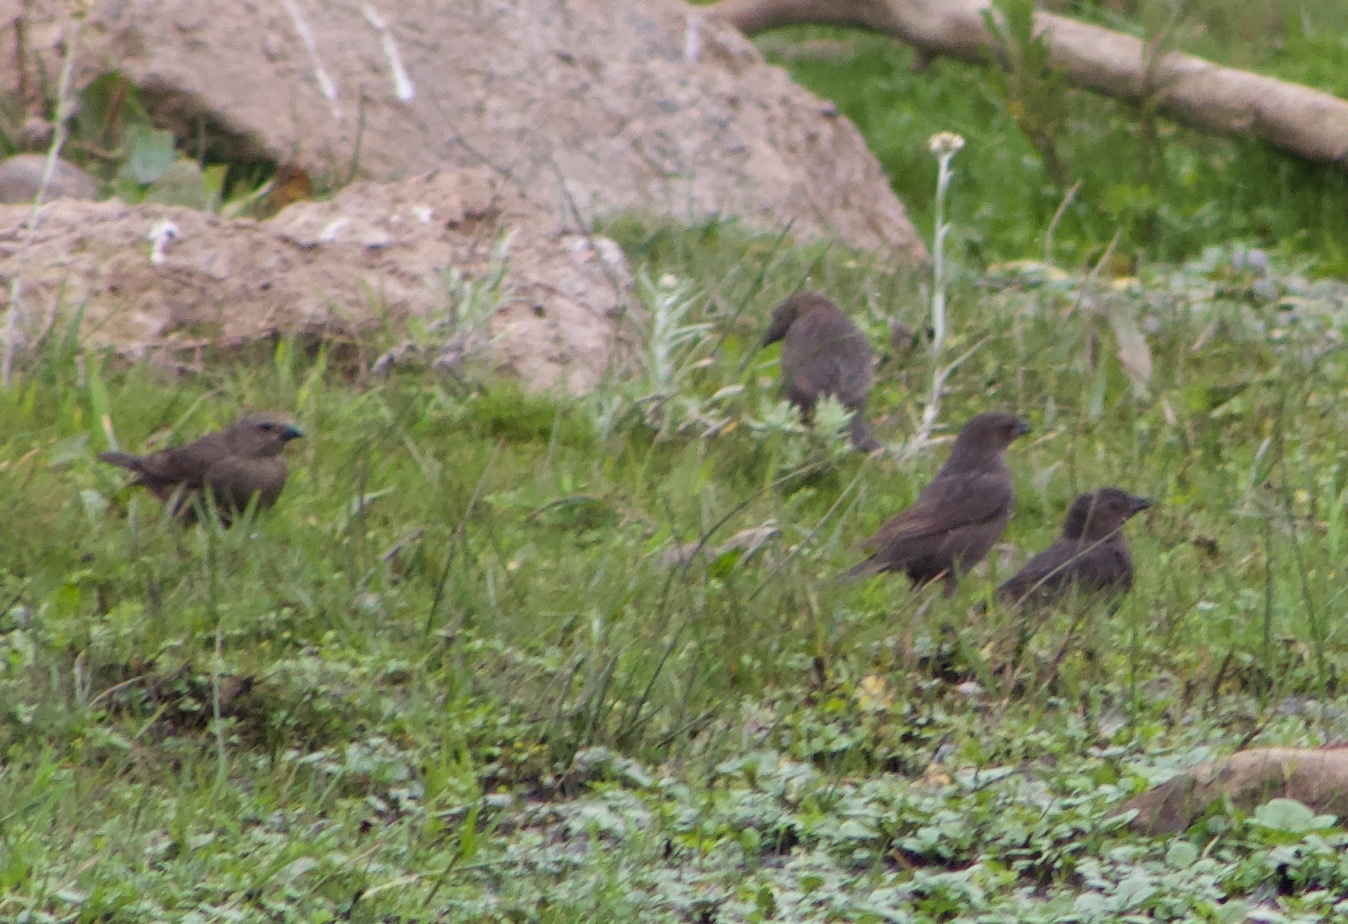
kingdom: Animalia
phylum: Chordata
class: Aves
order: Passeriformes
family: Icteridae
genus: Molothrus
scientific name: Molothrus bonariensis
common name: Shiny cowbird
